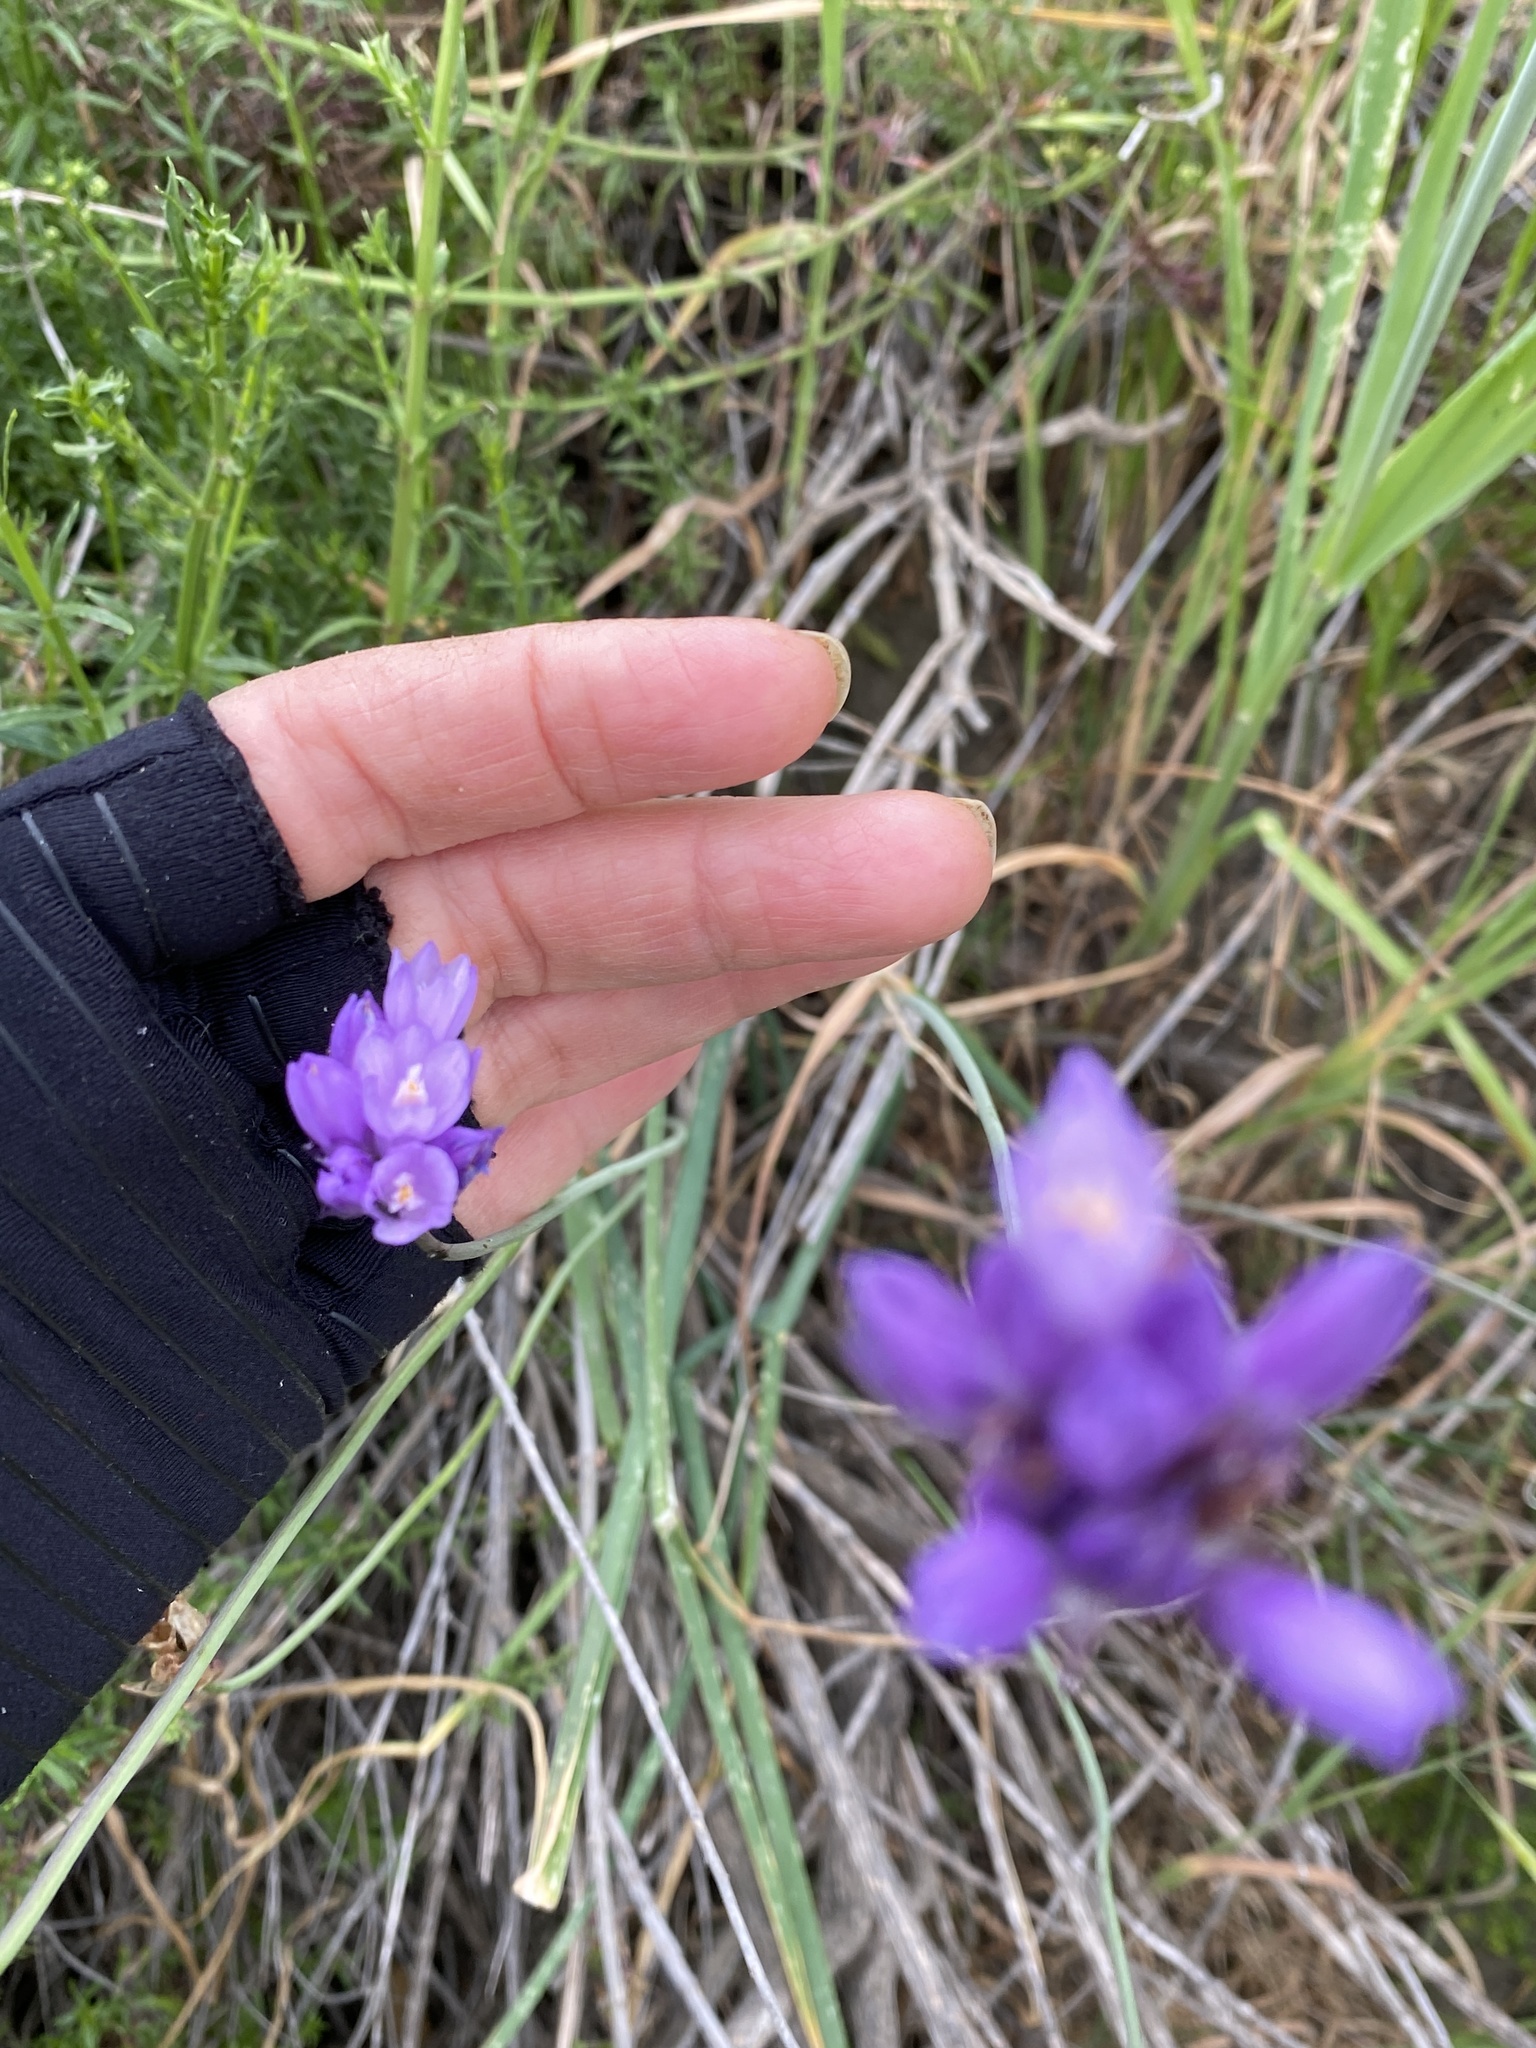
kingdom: Plantae
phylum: Tracheophyta
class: Liliopsida
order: Asparagales
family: Asparagaceae
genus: Dipterostemon
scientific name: Dipterostemon capitatus
